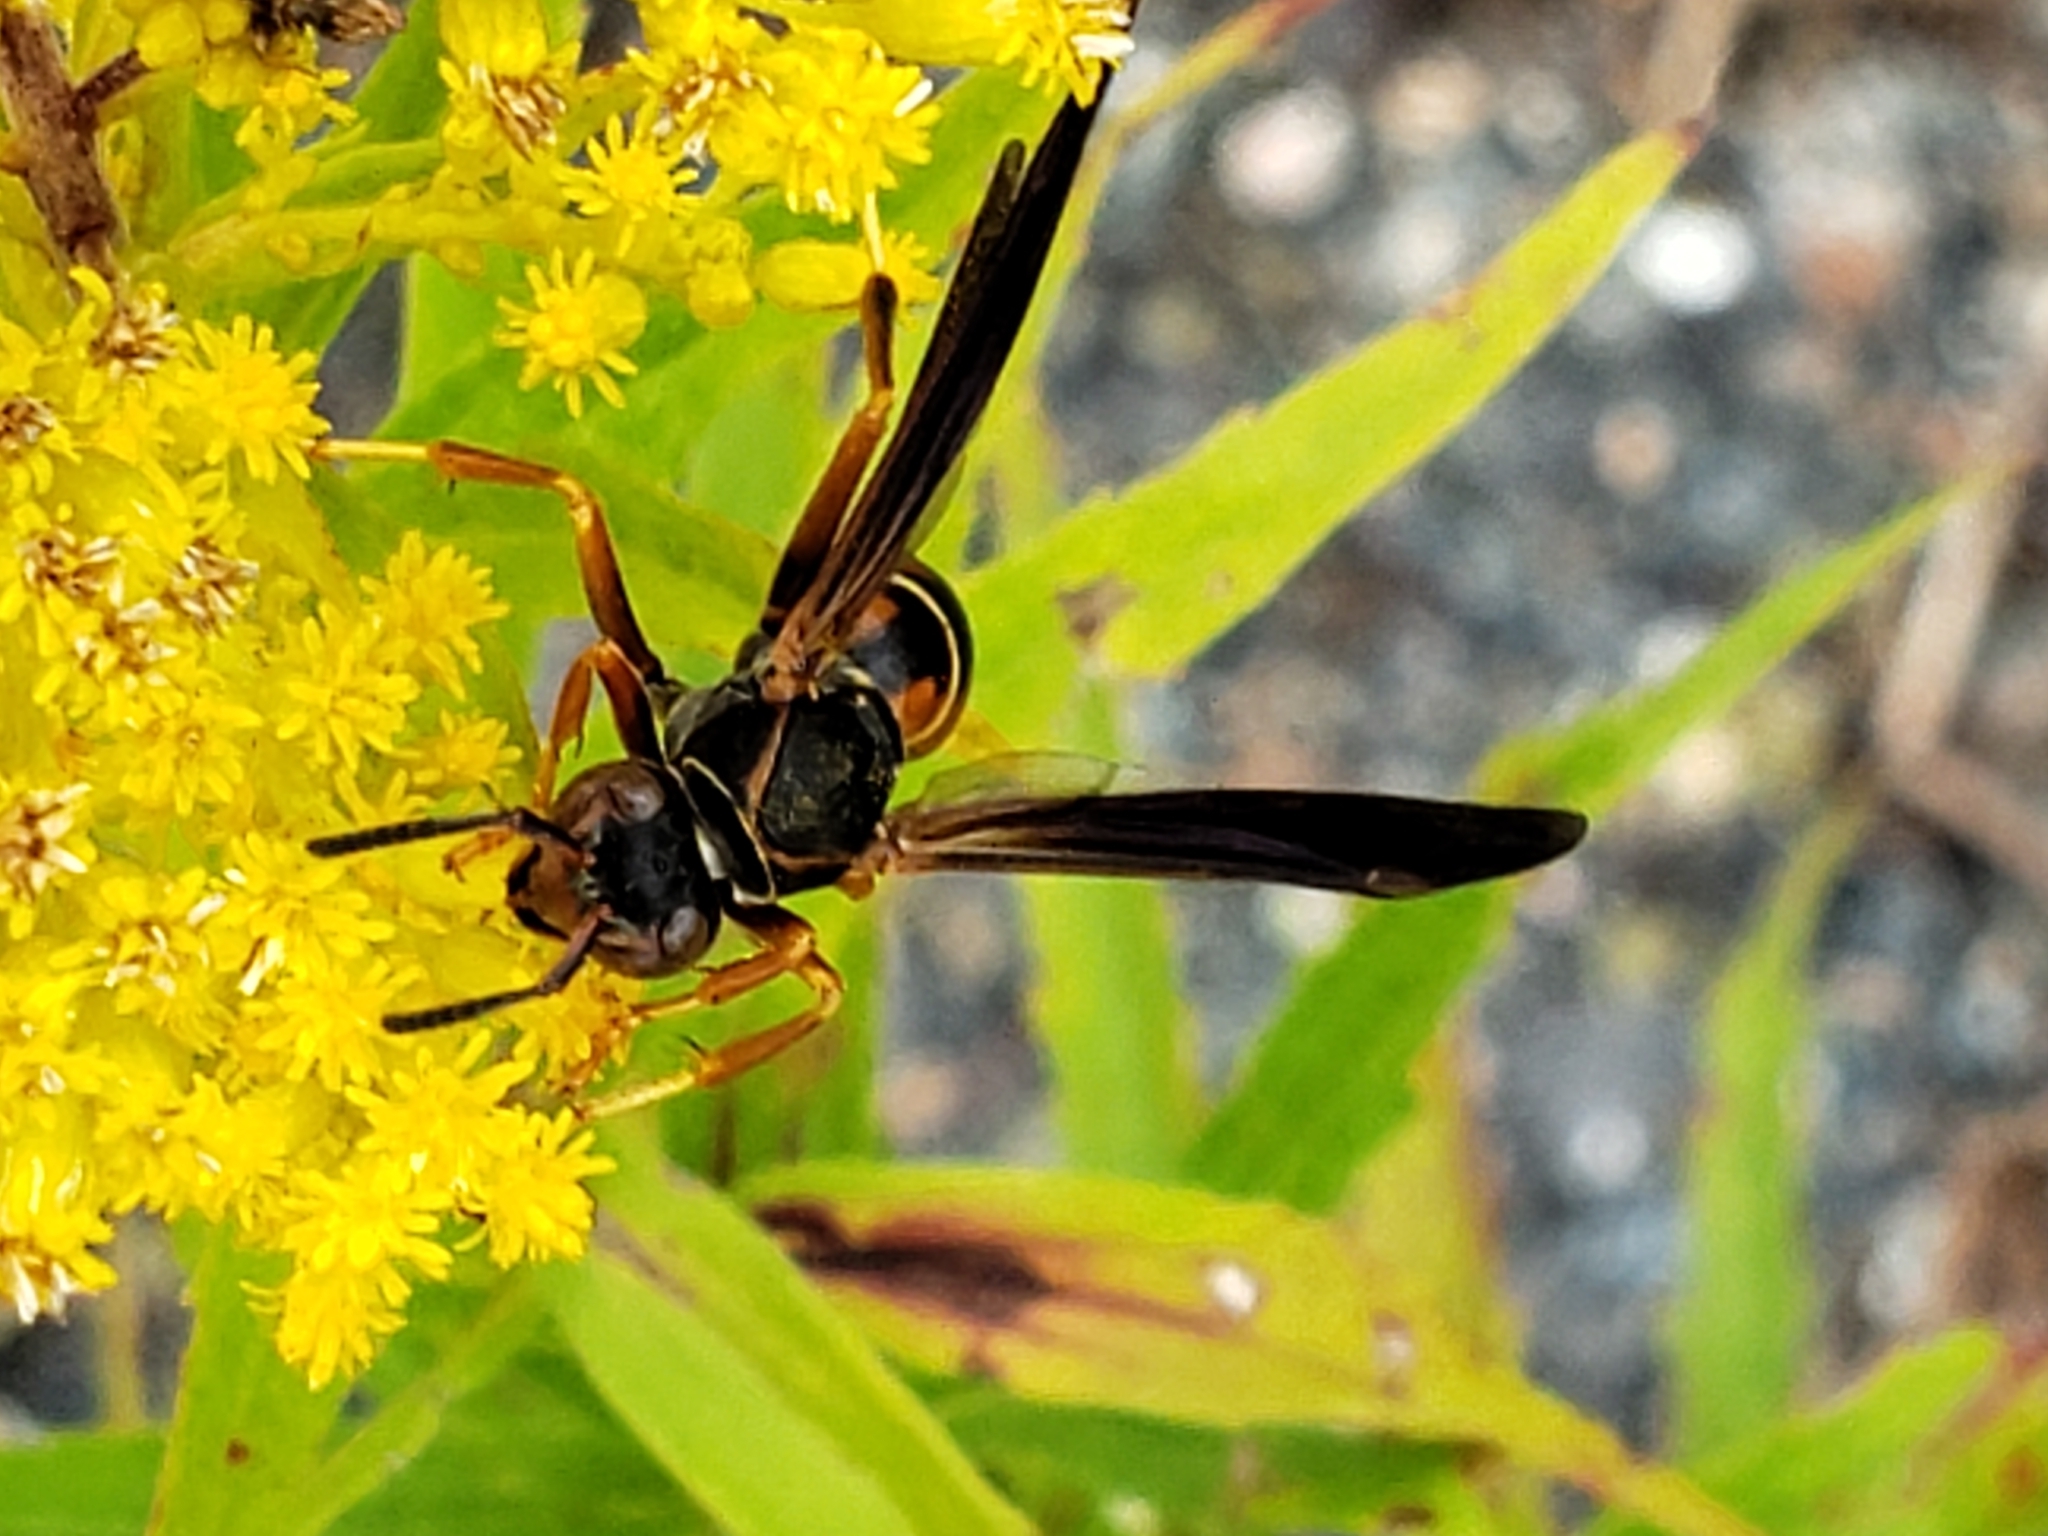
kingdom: Animalia
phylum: Arthropoda
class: Insecta
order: Hymenoptera
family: Eumenidae
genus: Polistes
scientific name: Polistes fuscatus
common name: Dark paper wasp
